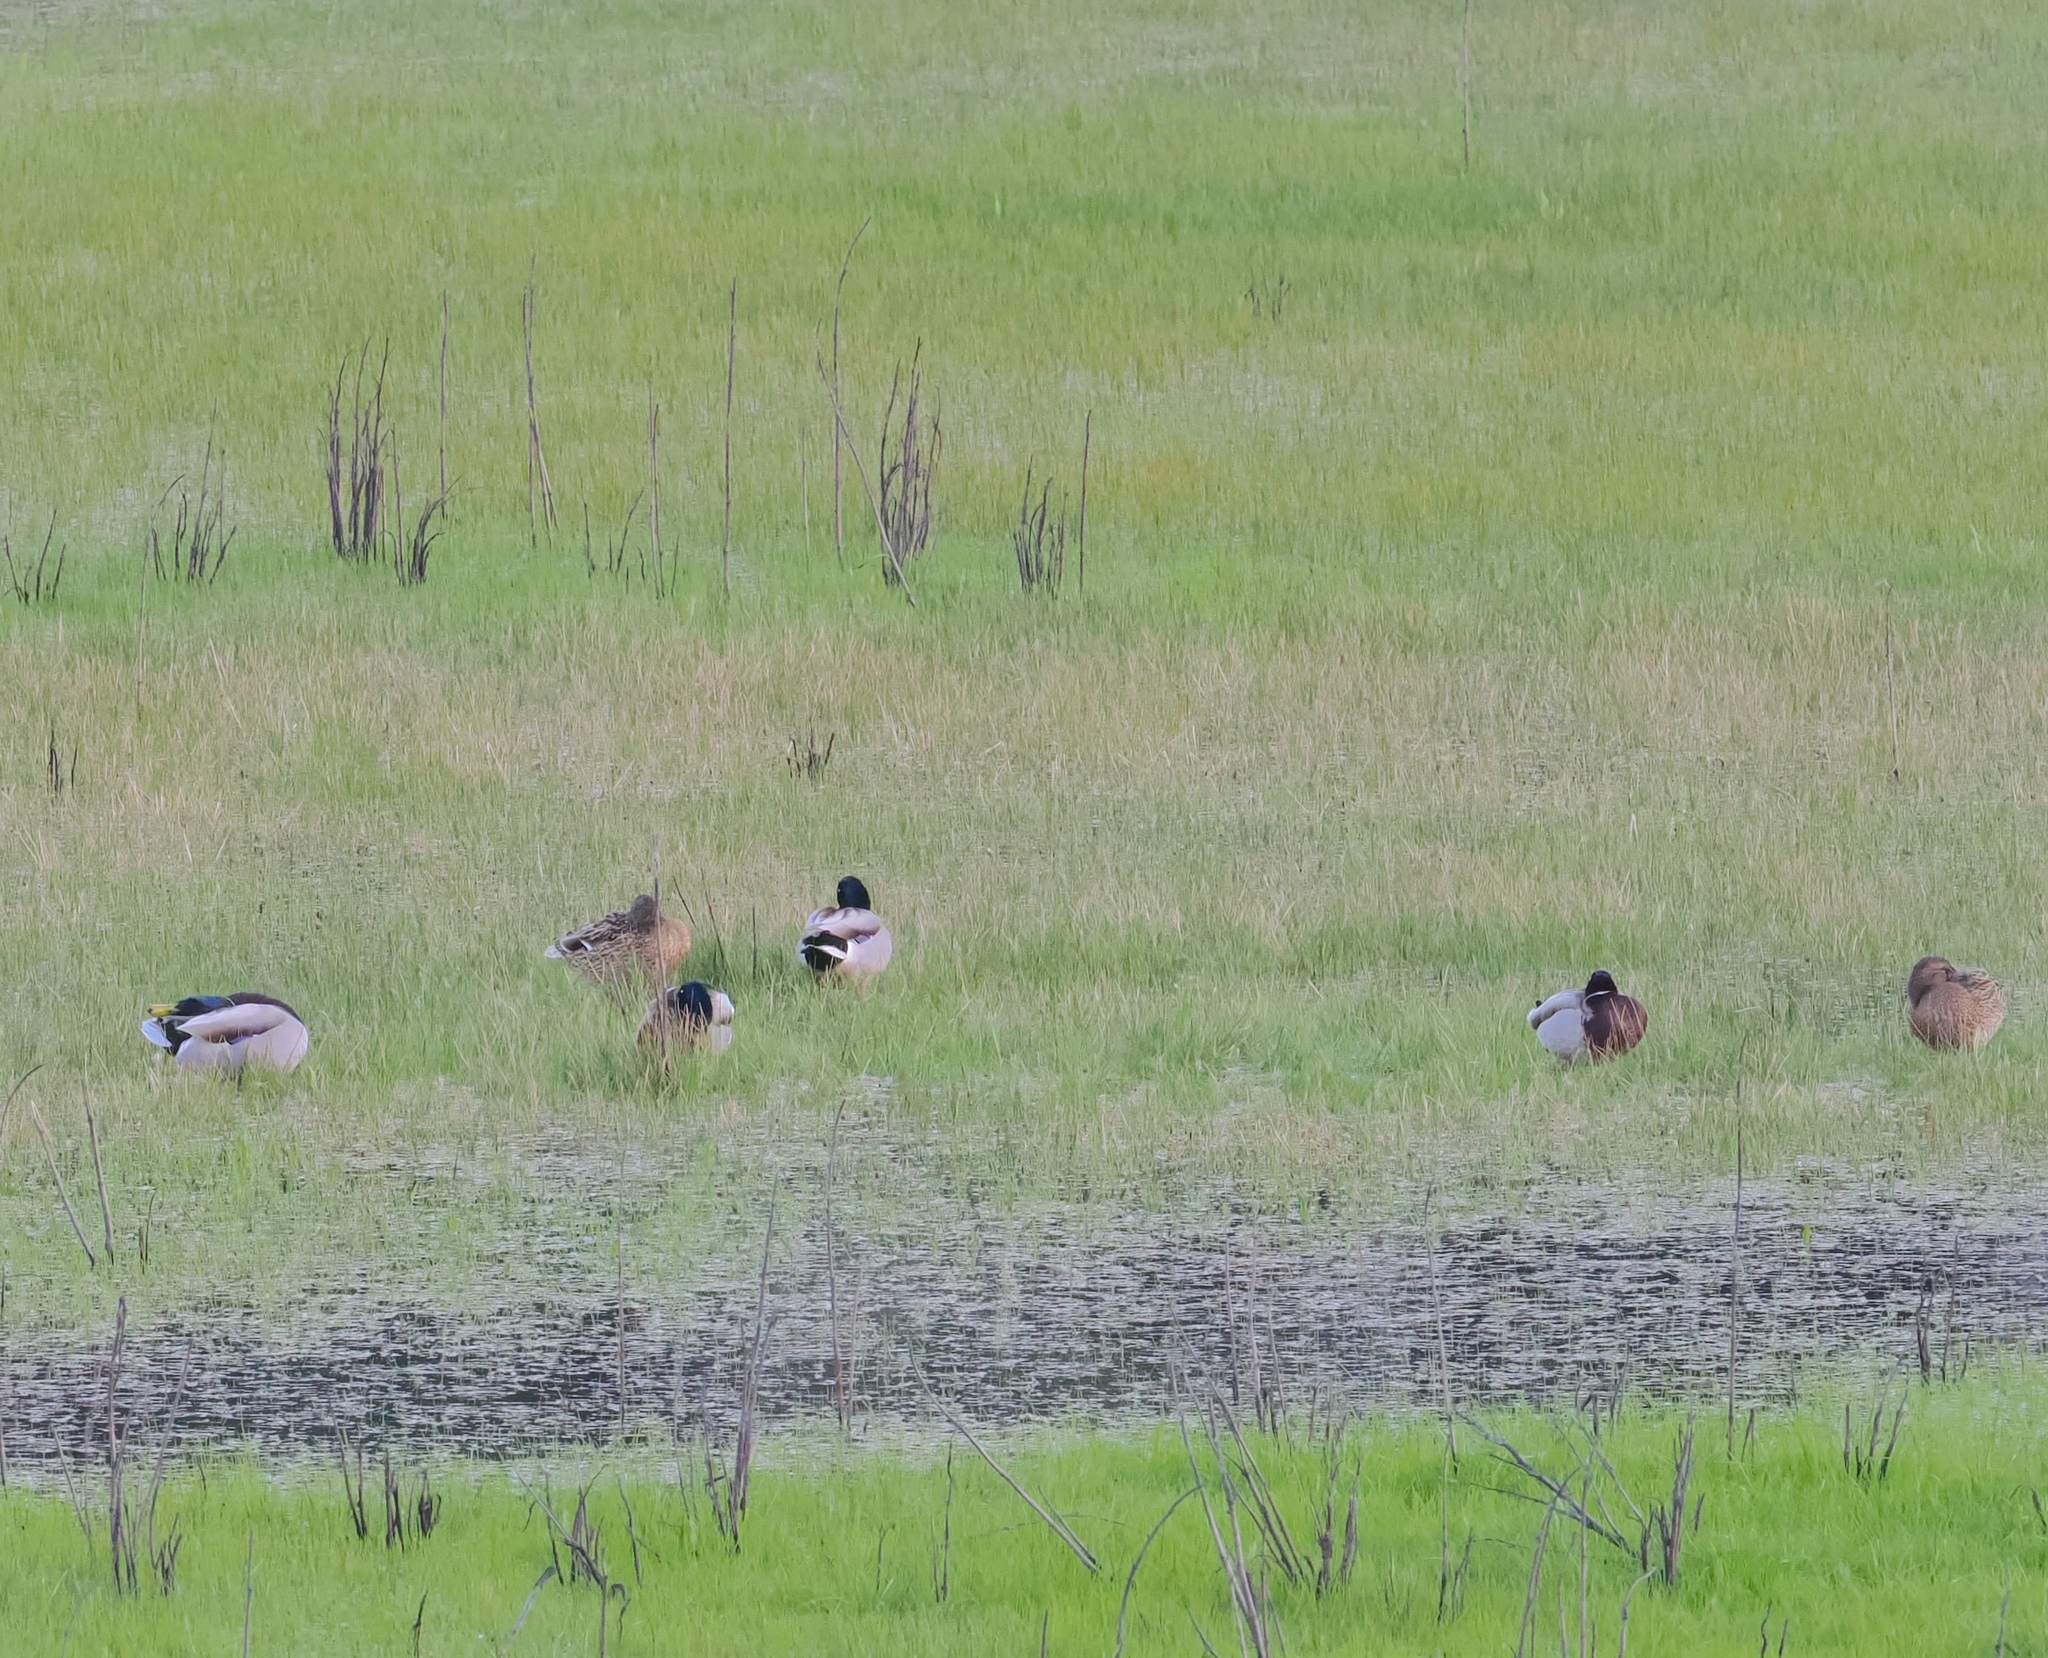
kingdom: Animalia
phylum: Chordata
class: Aves
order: Anseriformes
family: Anatidae
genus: Anas
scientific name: Anas platyrhynchos
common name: Mallard
